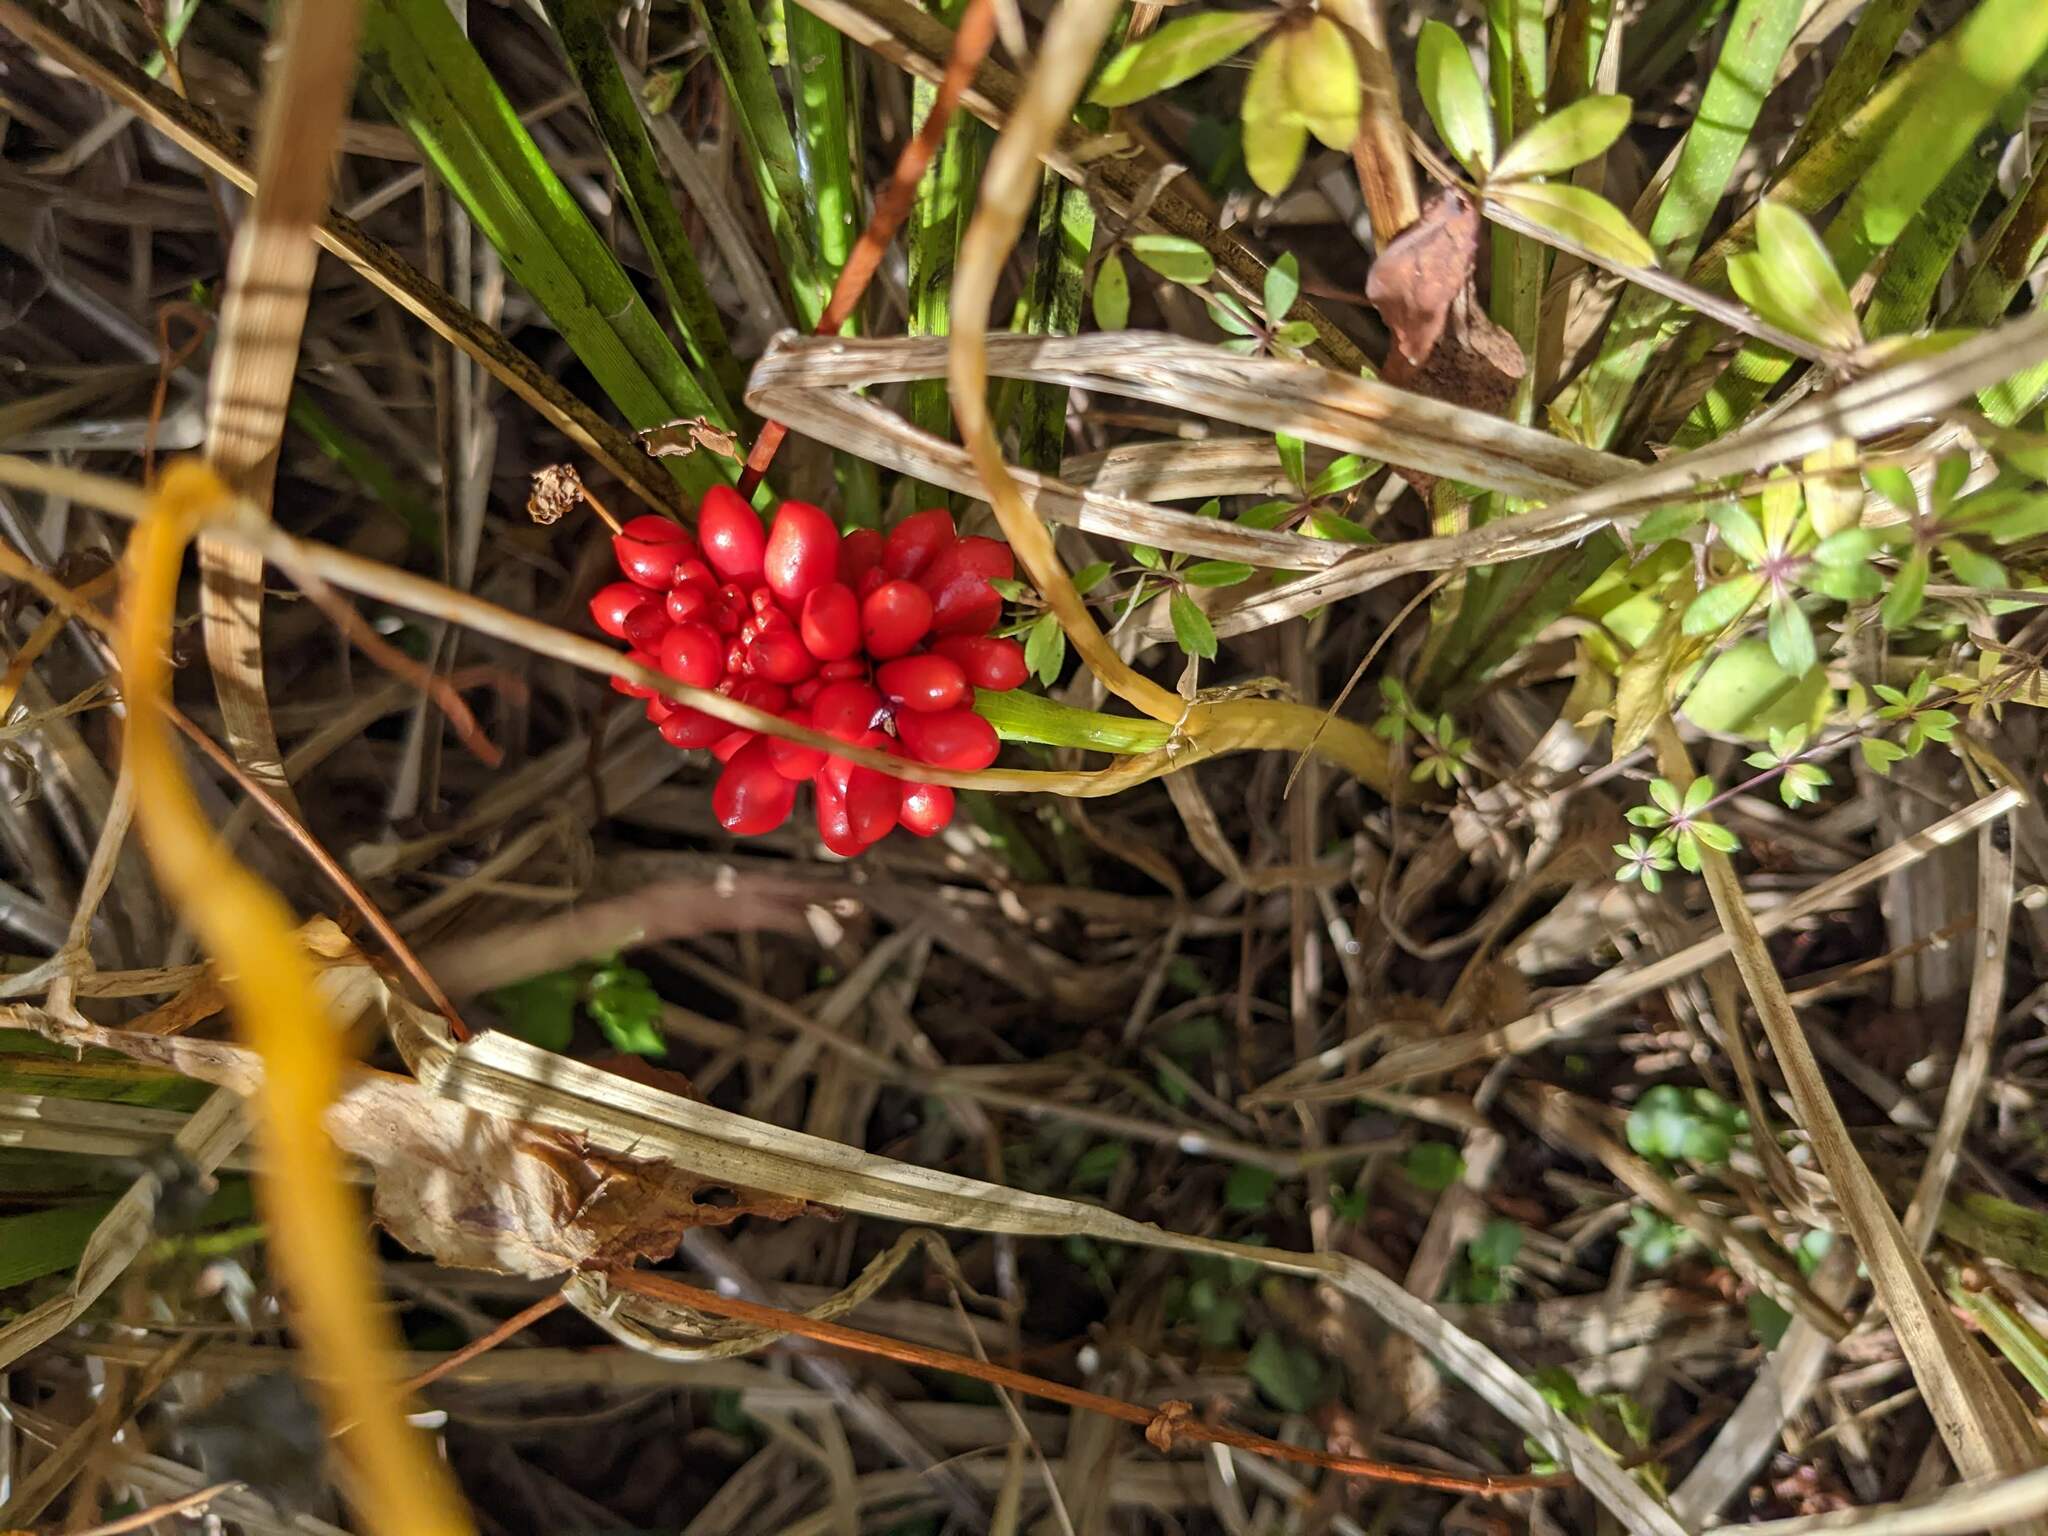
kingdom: Plantae
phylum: Tracheophyta
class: Liliopsida
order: Alismatales
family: Araceae
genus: Arisaema
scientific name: Arisaema triphyllum
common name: Jack-in-the-pulpit
